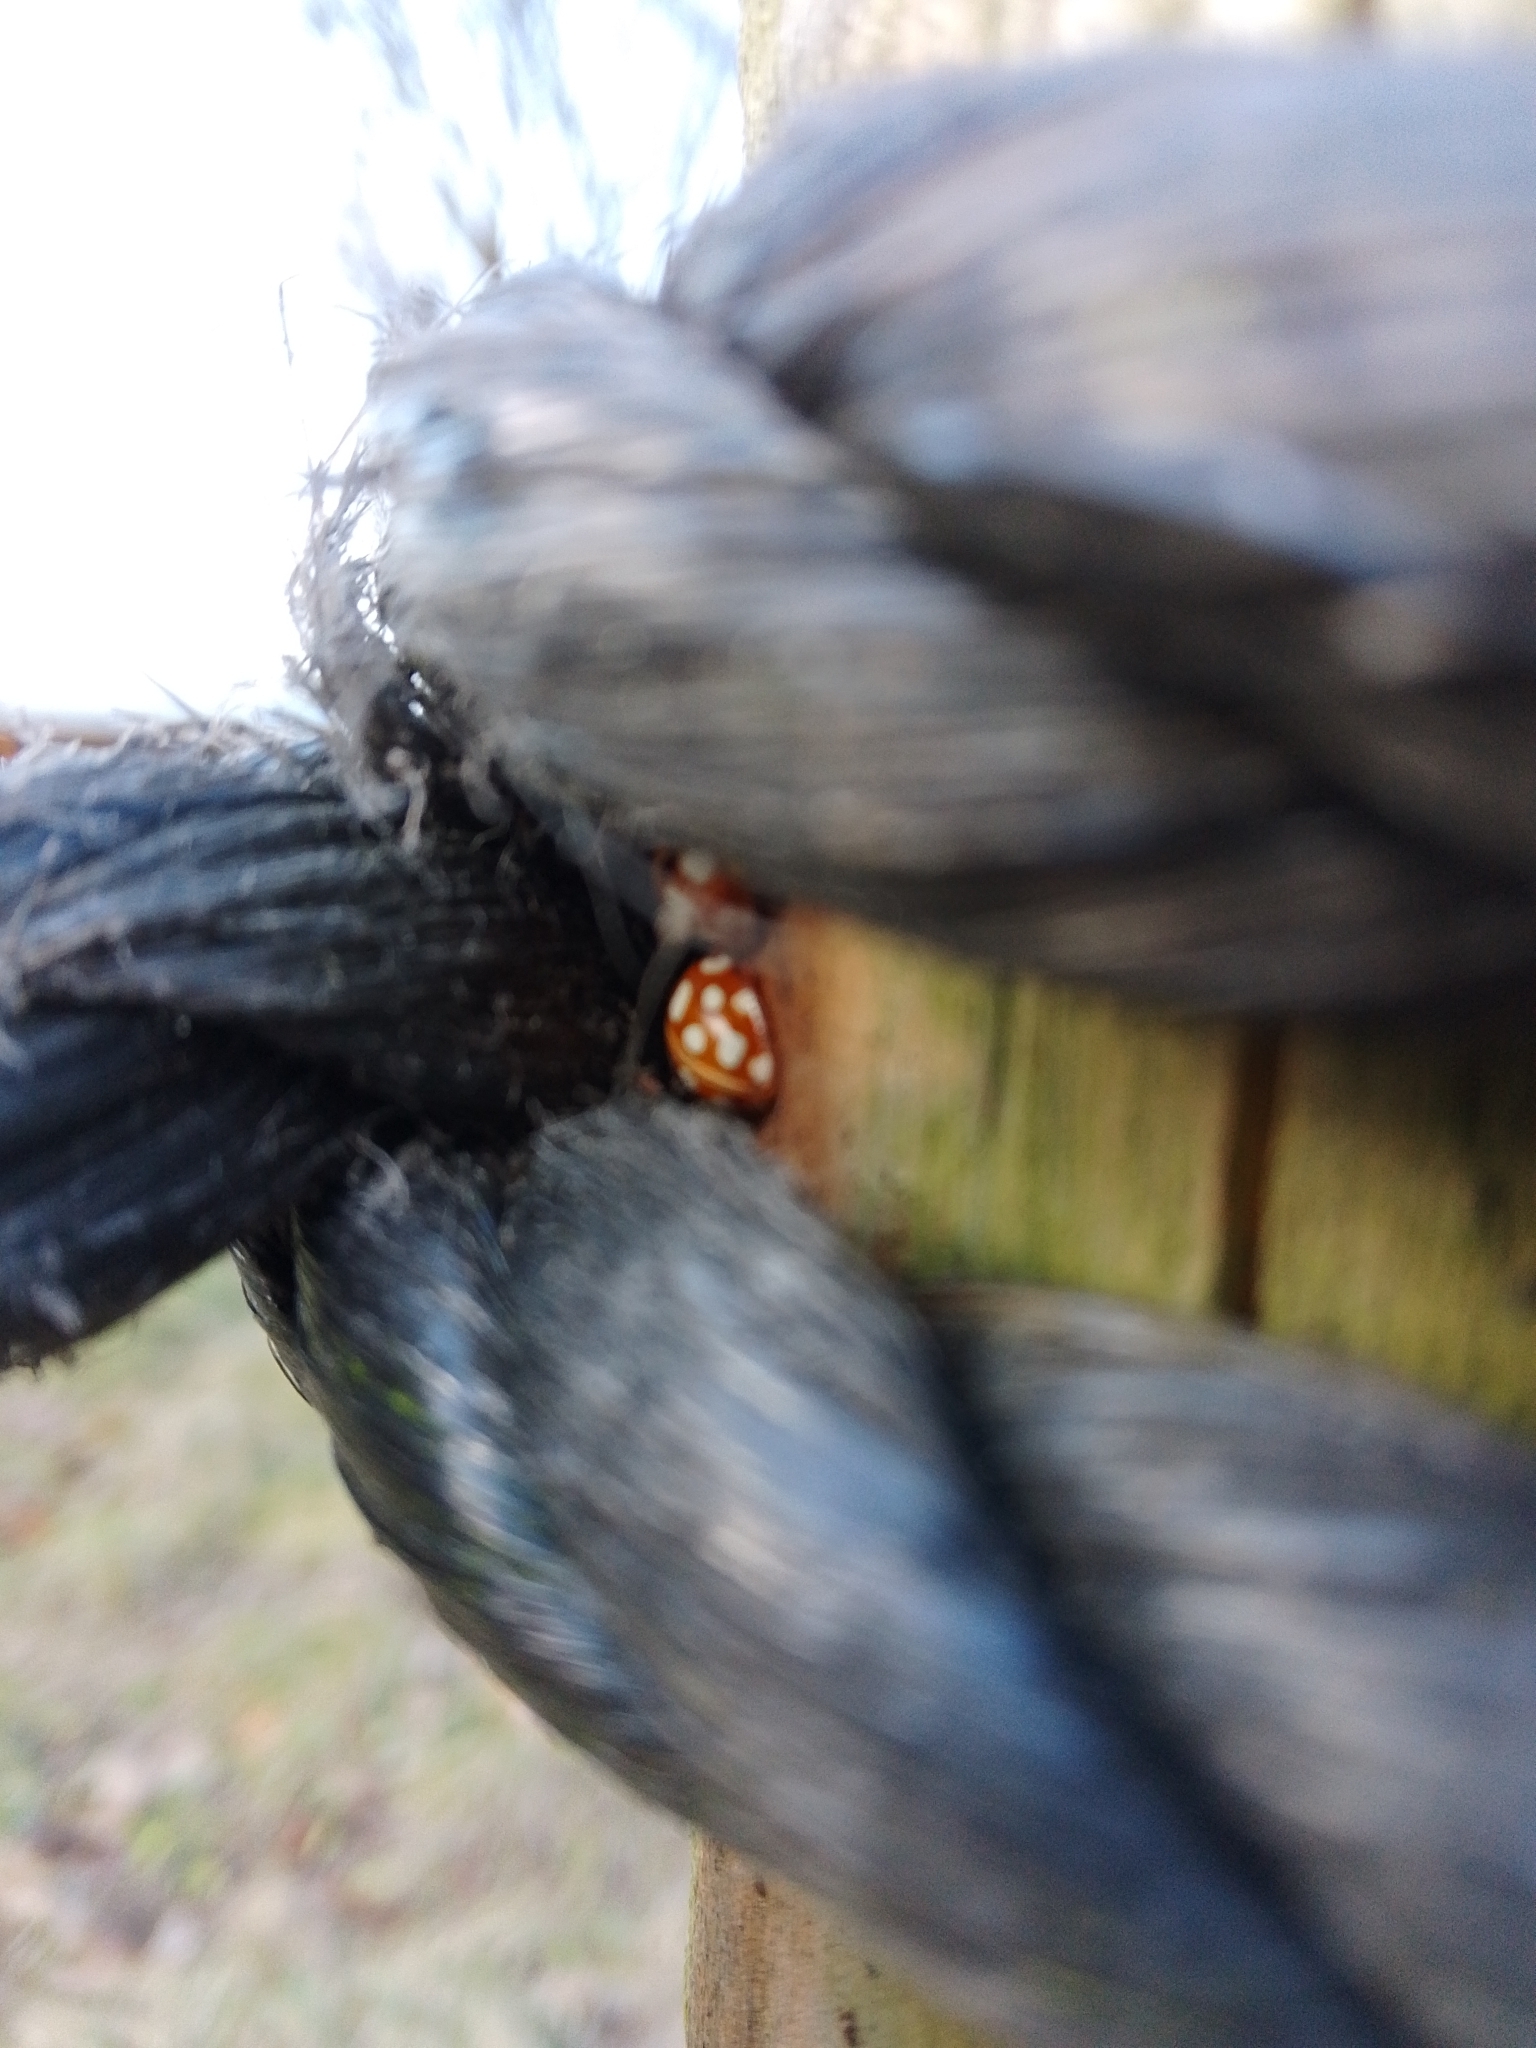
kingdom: Animalia
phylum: Arthropoda
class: Insecta
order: Coleoptera
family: Coccinellidae
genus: Halyzia
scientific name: Halyzia sedecimguttata
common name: Orange ladybird
